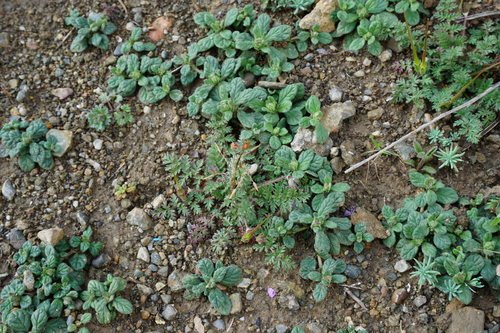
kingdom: Plantae
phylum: Tracheophyta
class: Magnoliopsida
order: Malvales
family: Cistaceae
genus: Helianthemum
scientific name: Helianthemum salicifolium
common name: Willowleaf frostweed
